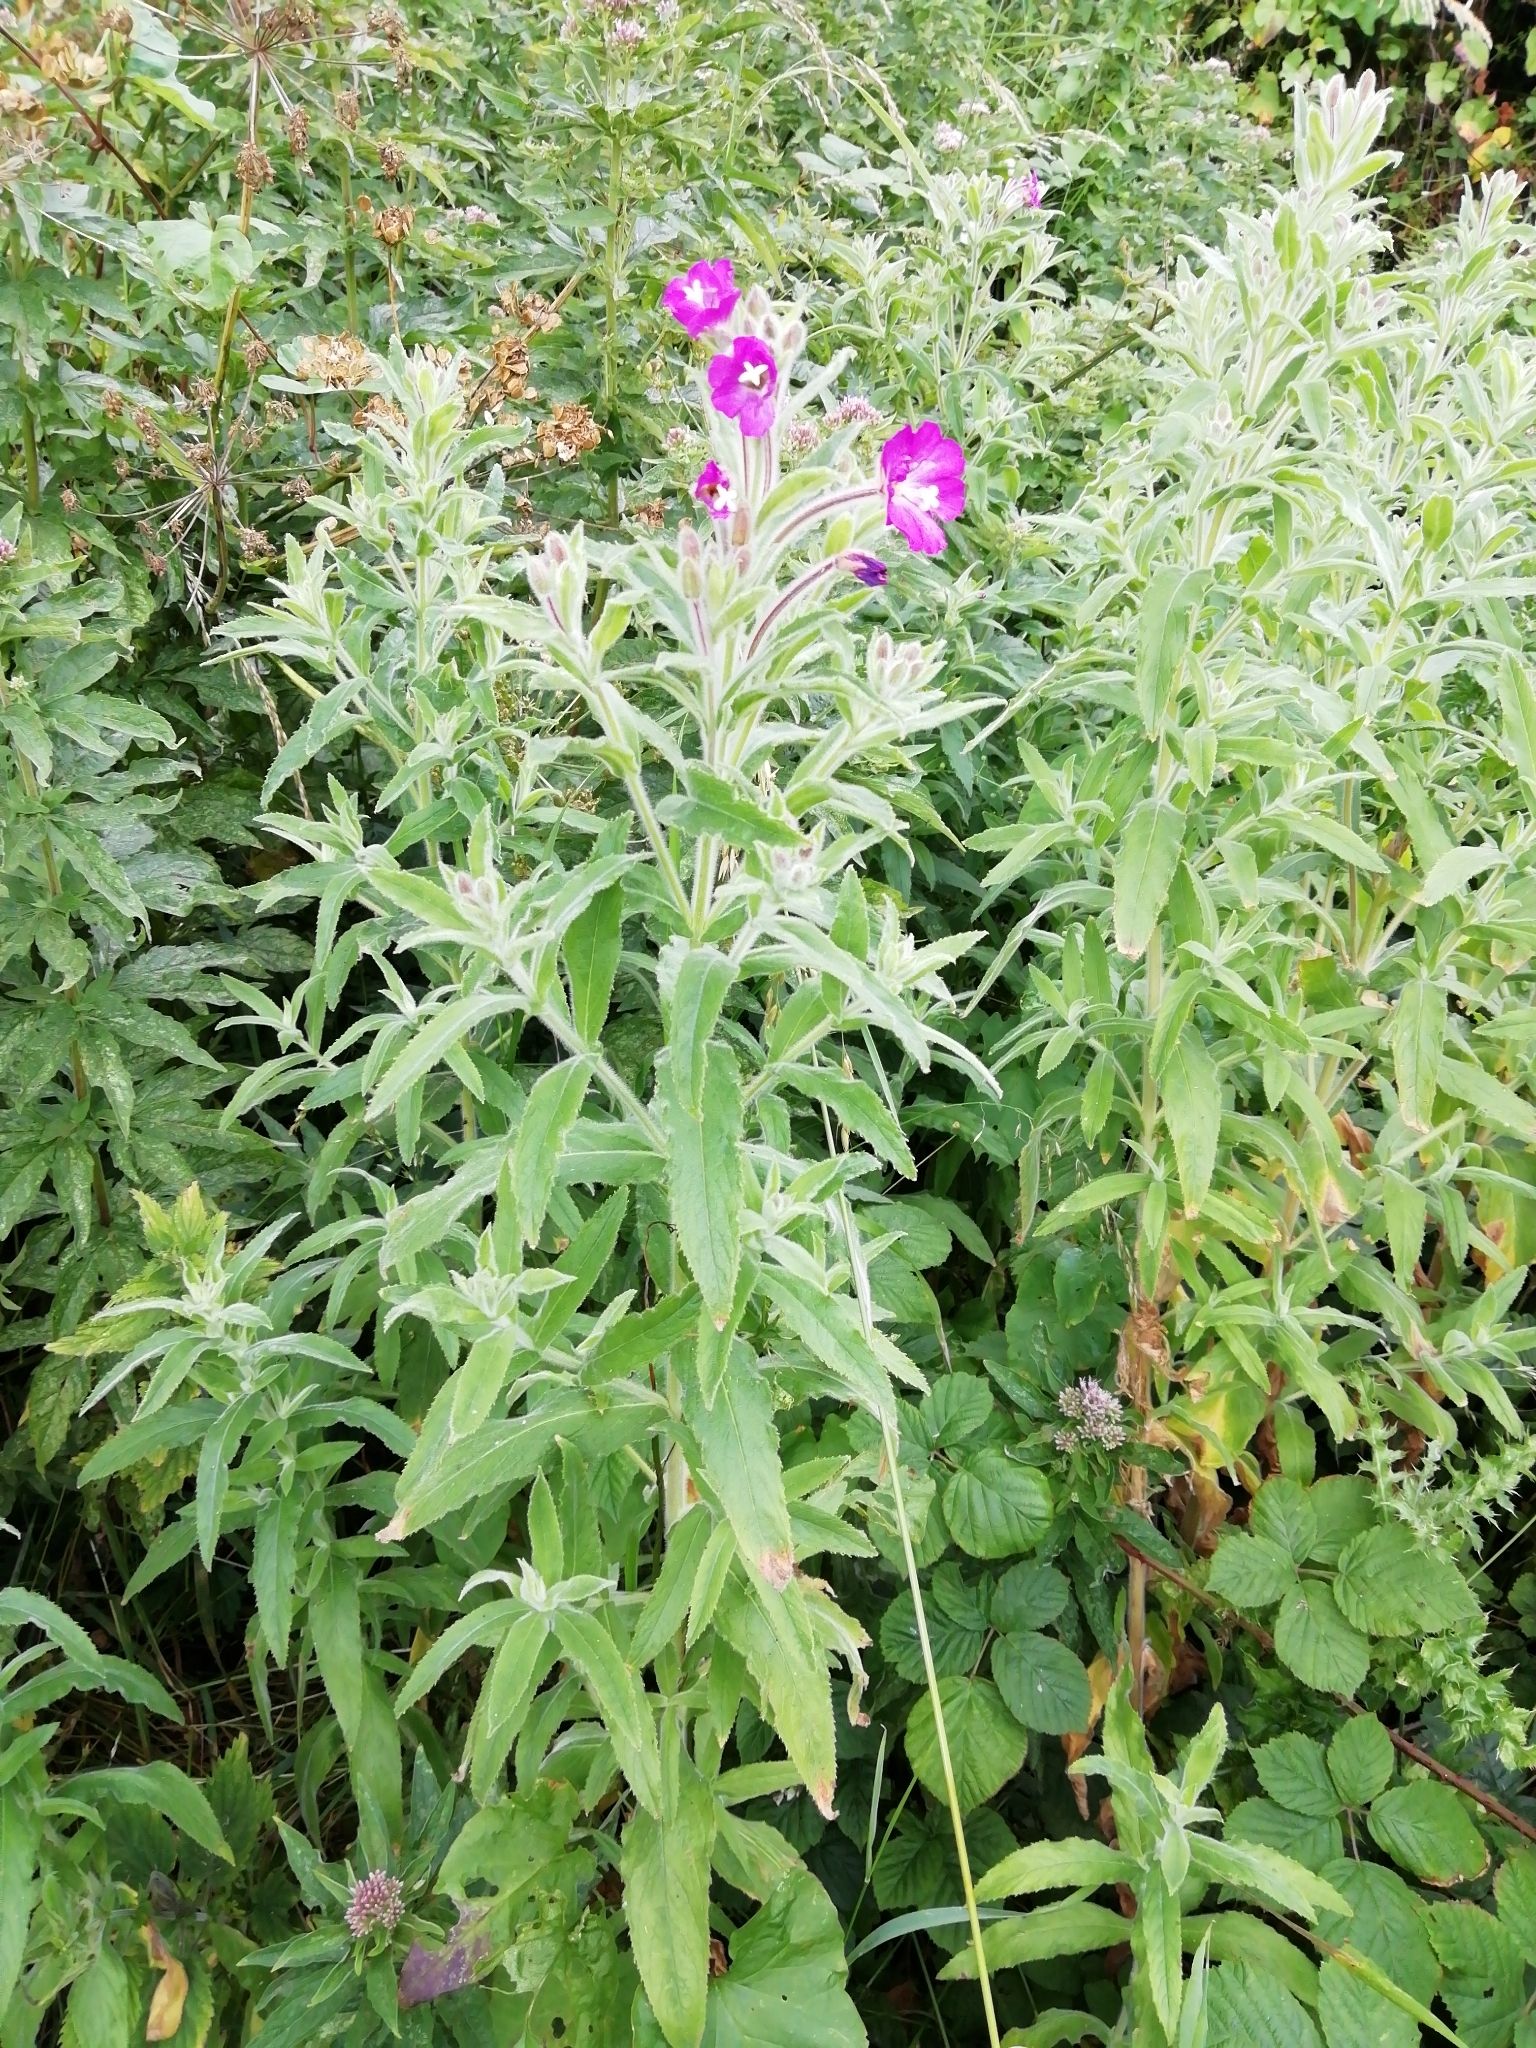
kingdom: Plantae
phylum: Tracheophyta
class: Magnoliopsida
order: Myrtales
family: Onagraceae
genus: Epilobium
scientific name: Epilobium hirsutum
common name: Great willowherb
